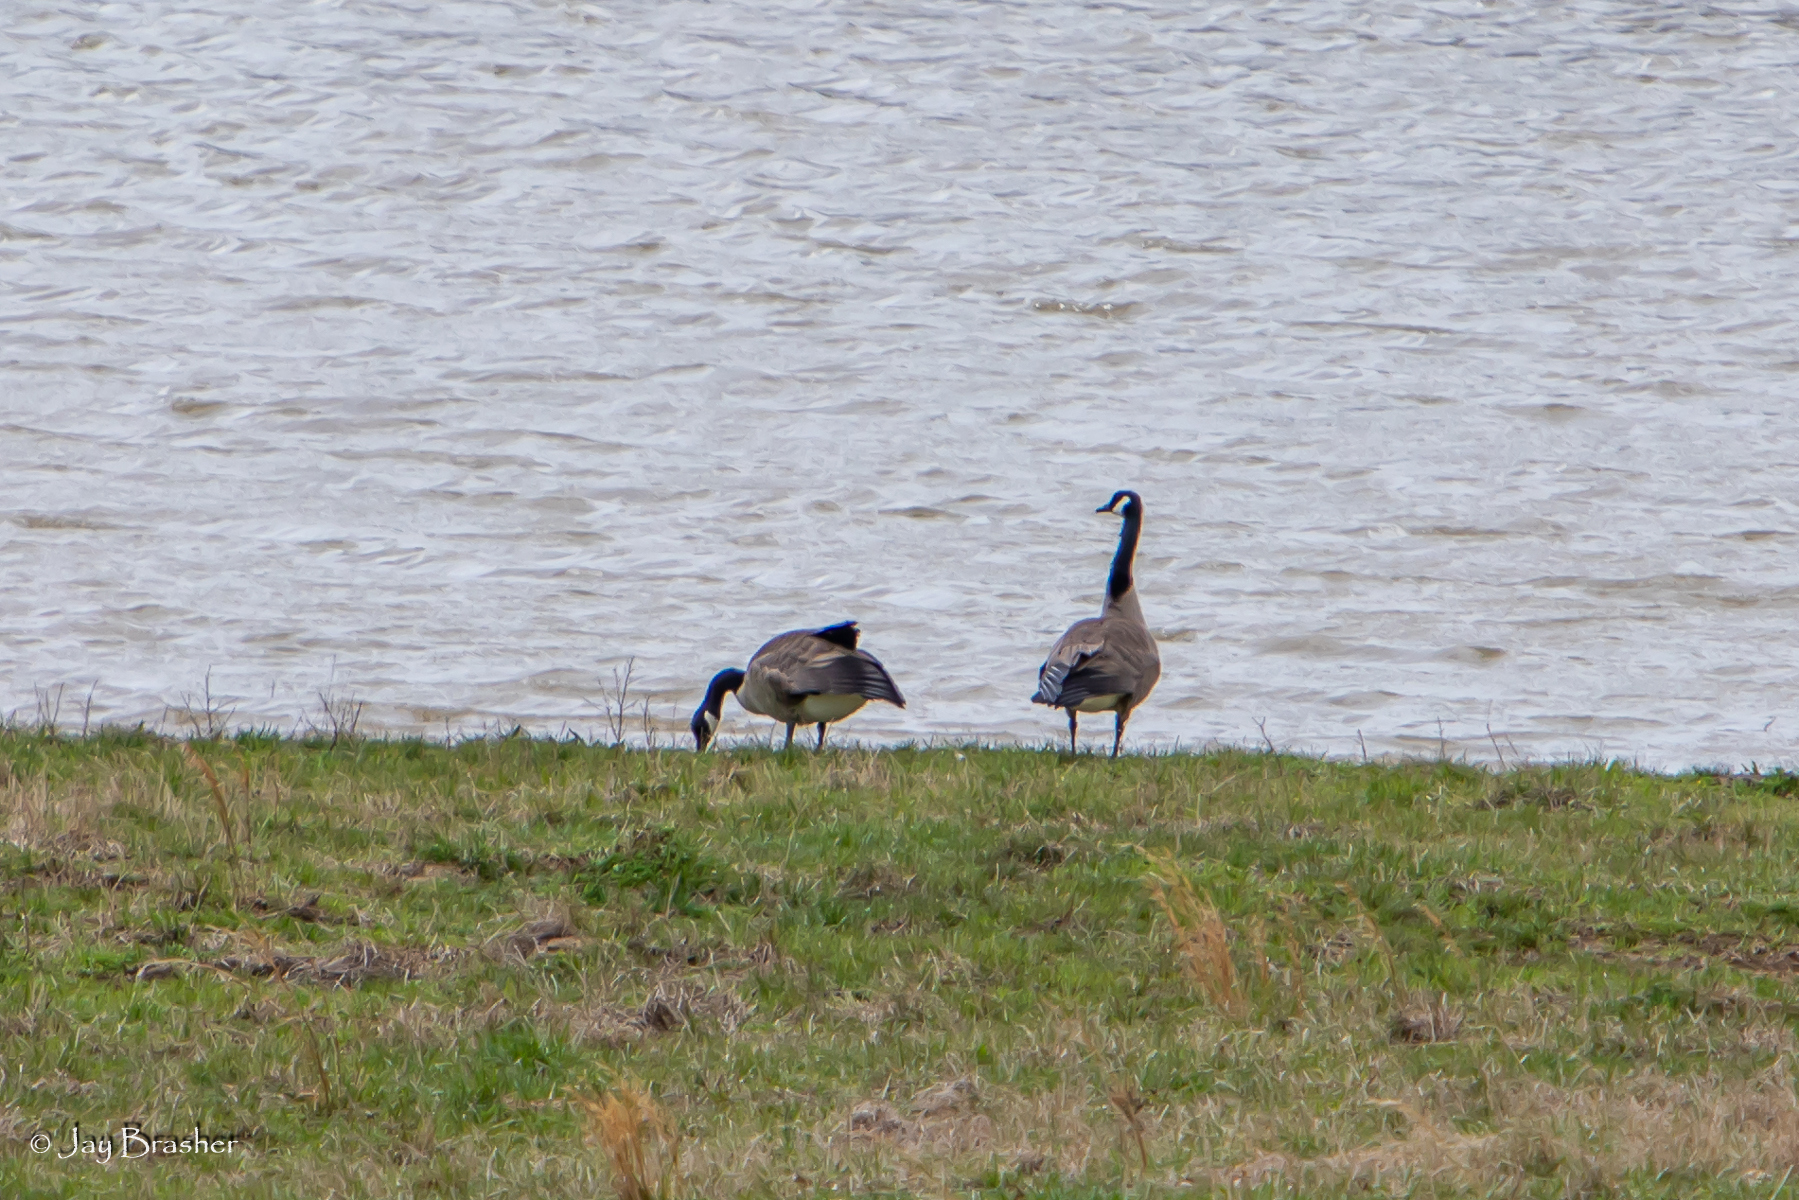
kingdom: Animalia
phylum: Chordata
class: Aves
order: Anseriformes
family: Anatidae
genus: Branta
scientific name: Branta canadensis
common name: Canada goose
